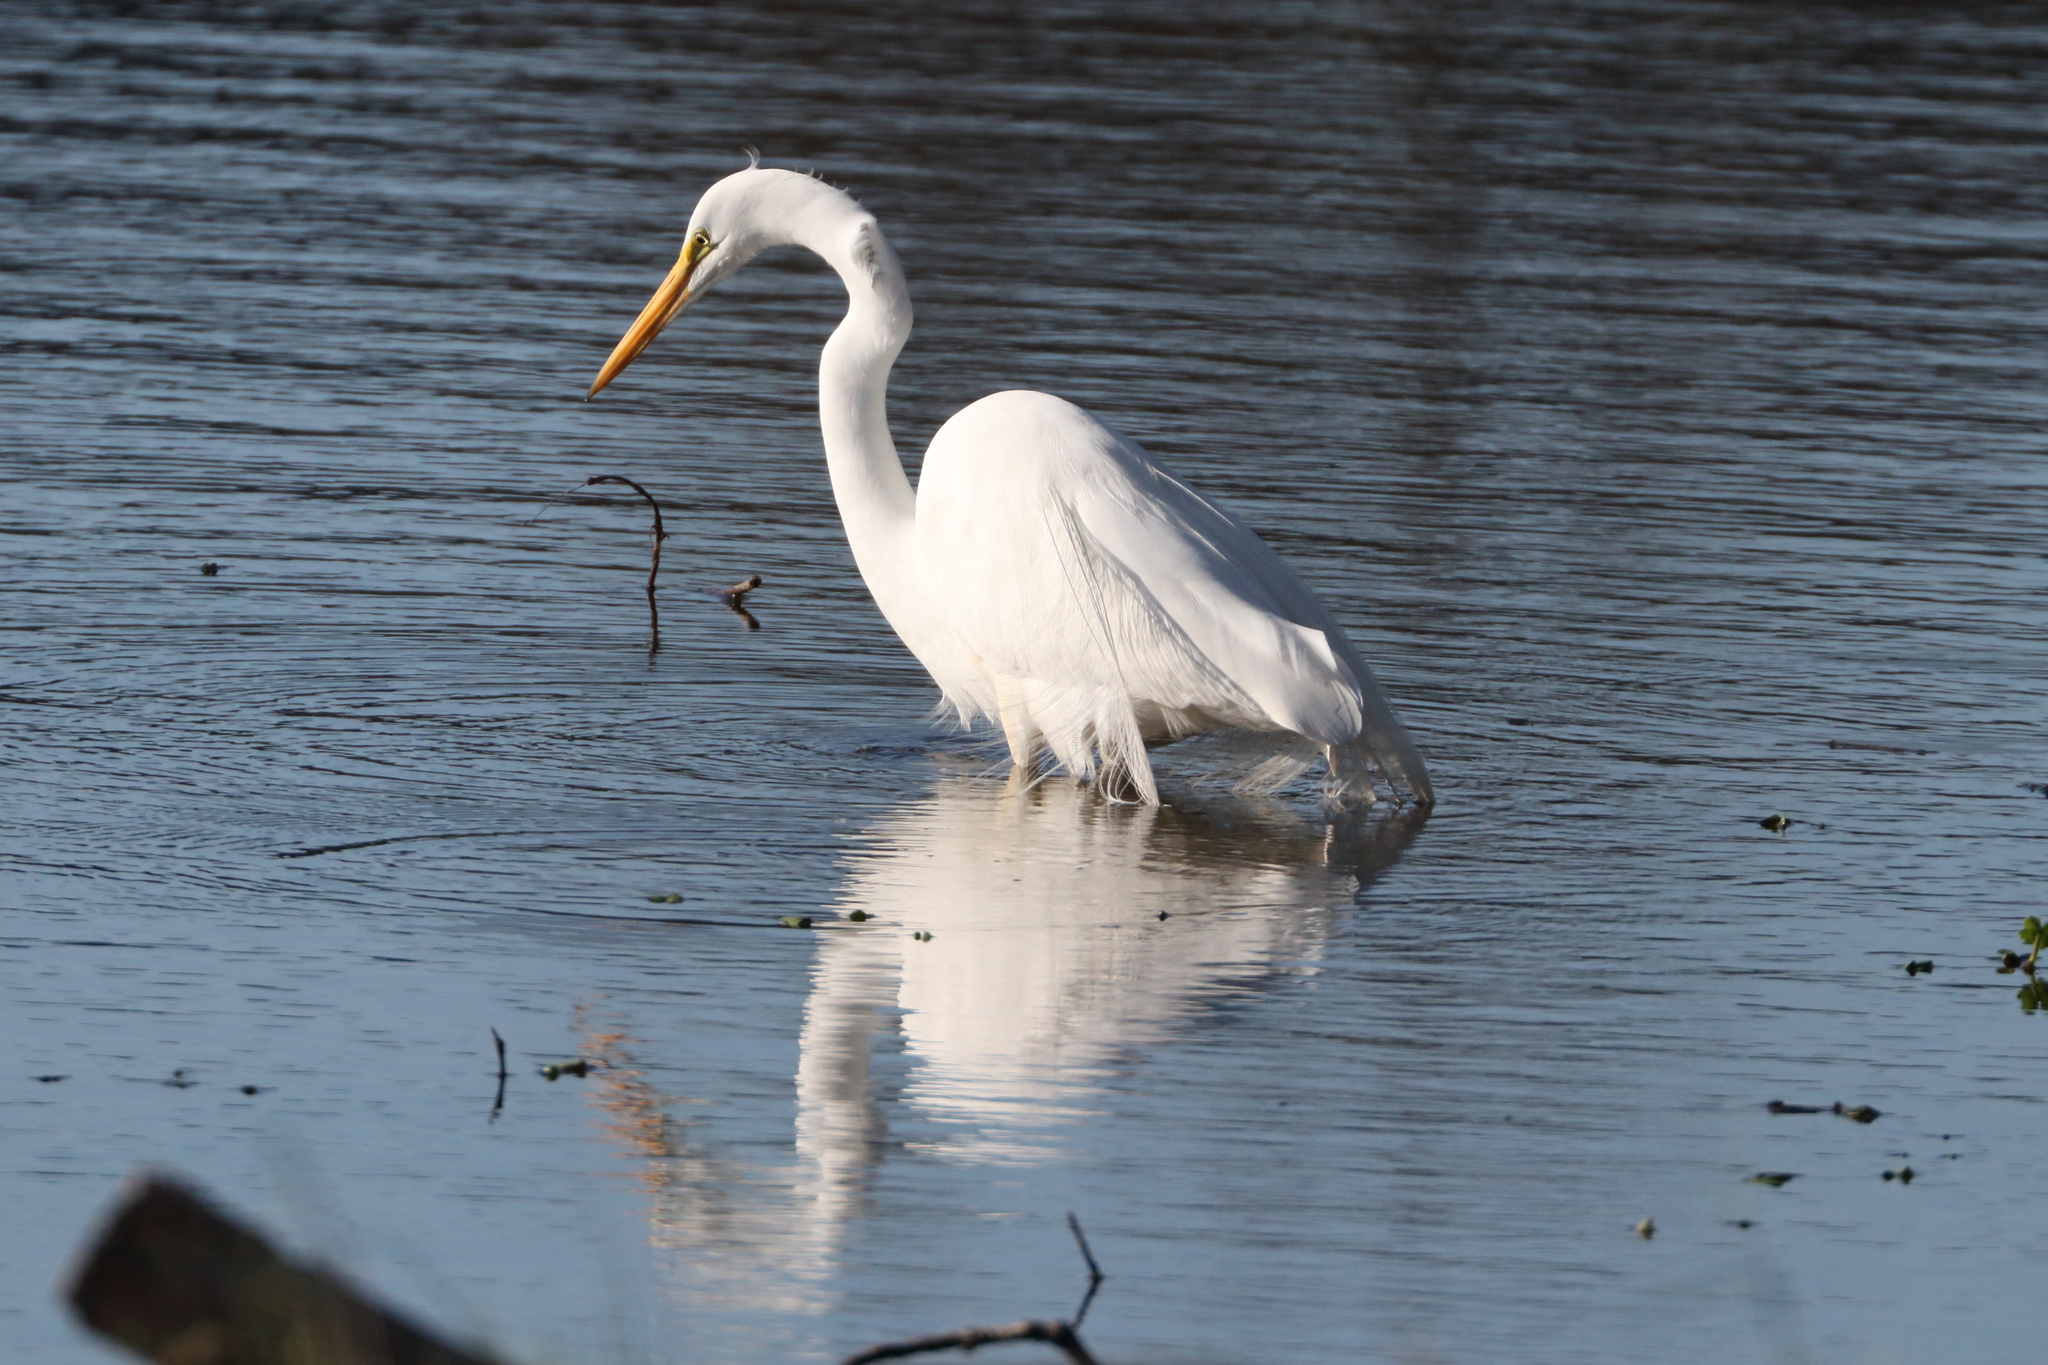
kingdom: Animalia
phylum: Chordata
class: Aves
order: Pelecaniformes
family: Ardeidae
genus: Ardea
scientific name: Ardea alba
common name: Great egret
